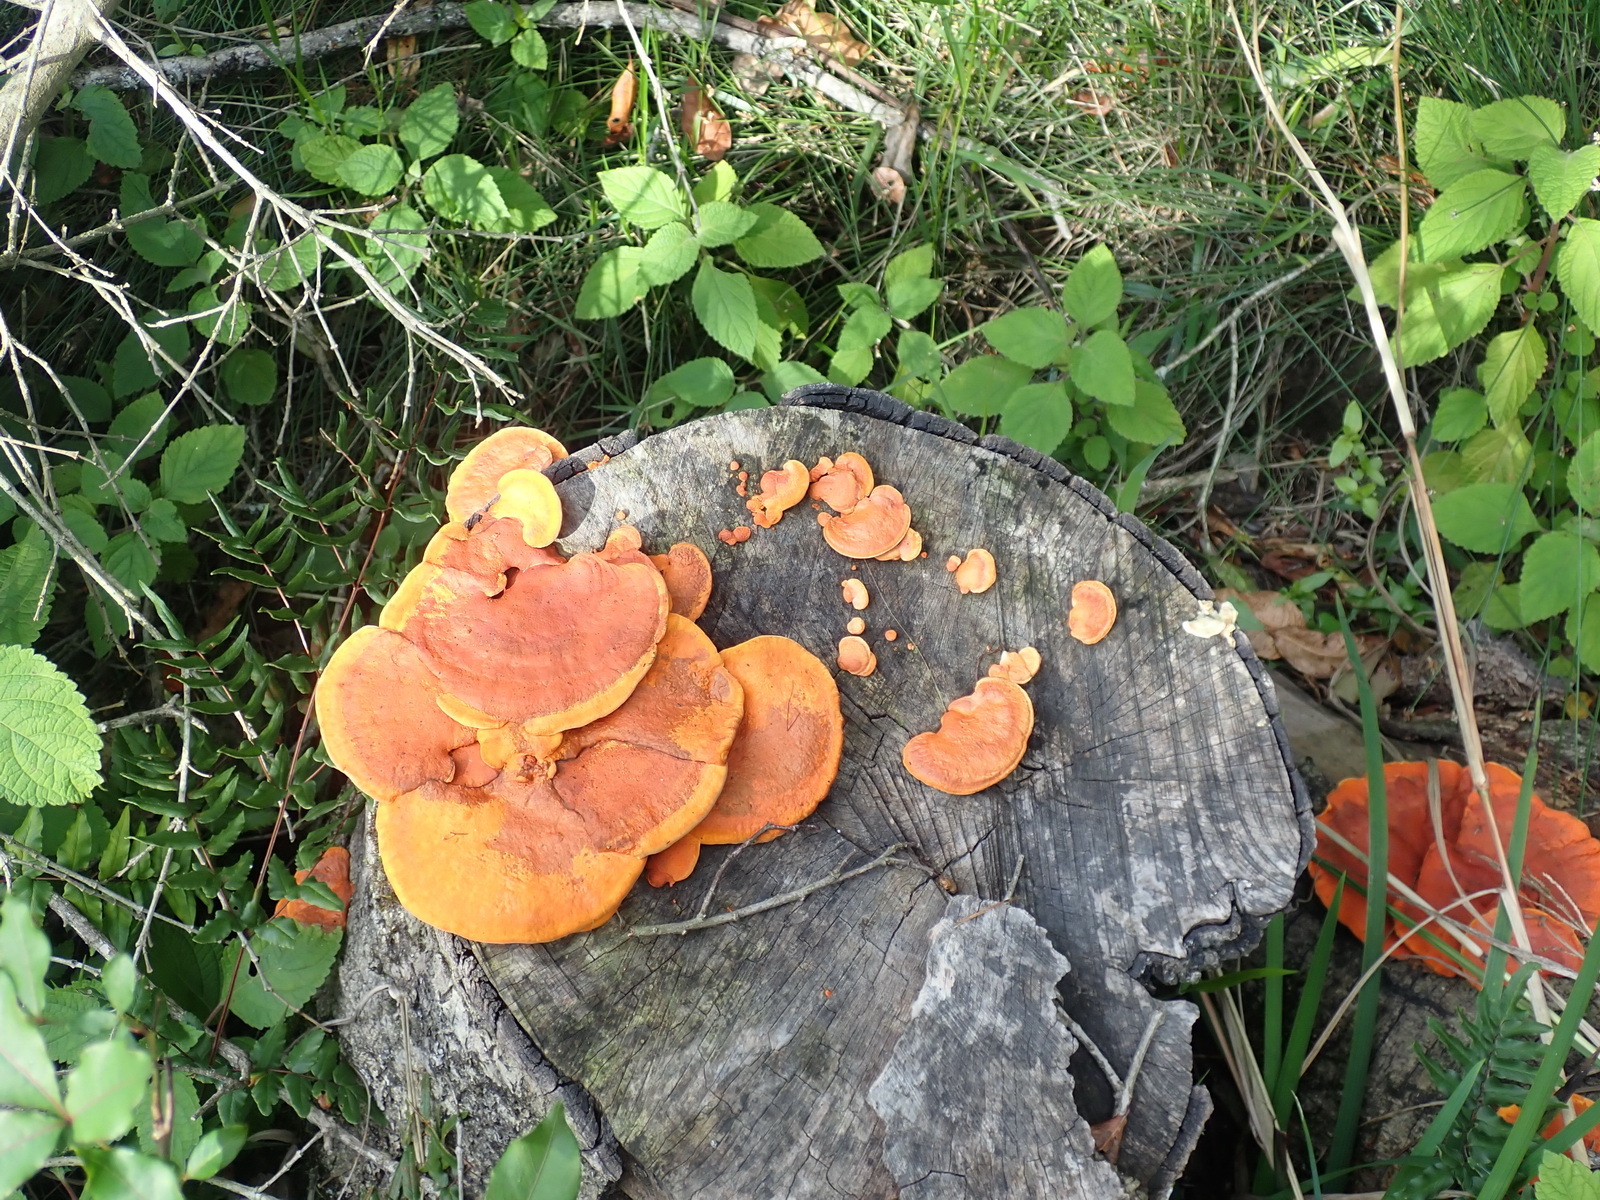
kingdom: Fungi
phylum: Basidiomycota
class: Agaricomycetes
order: Polyporales
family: Polyporaceae
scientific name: Polyporaceae
